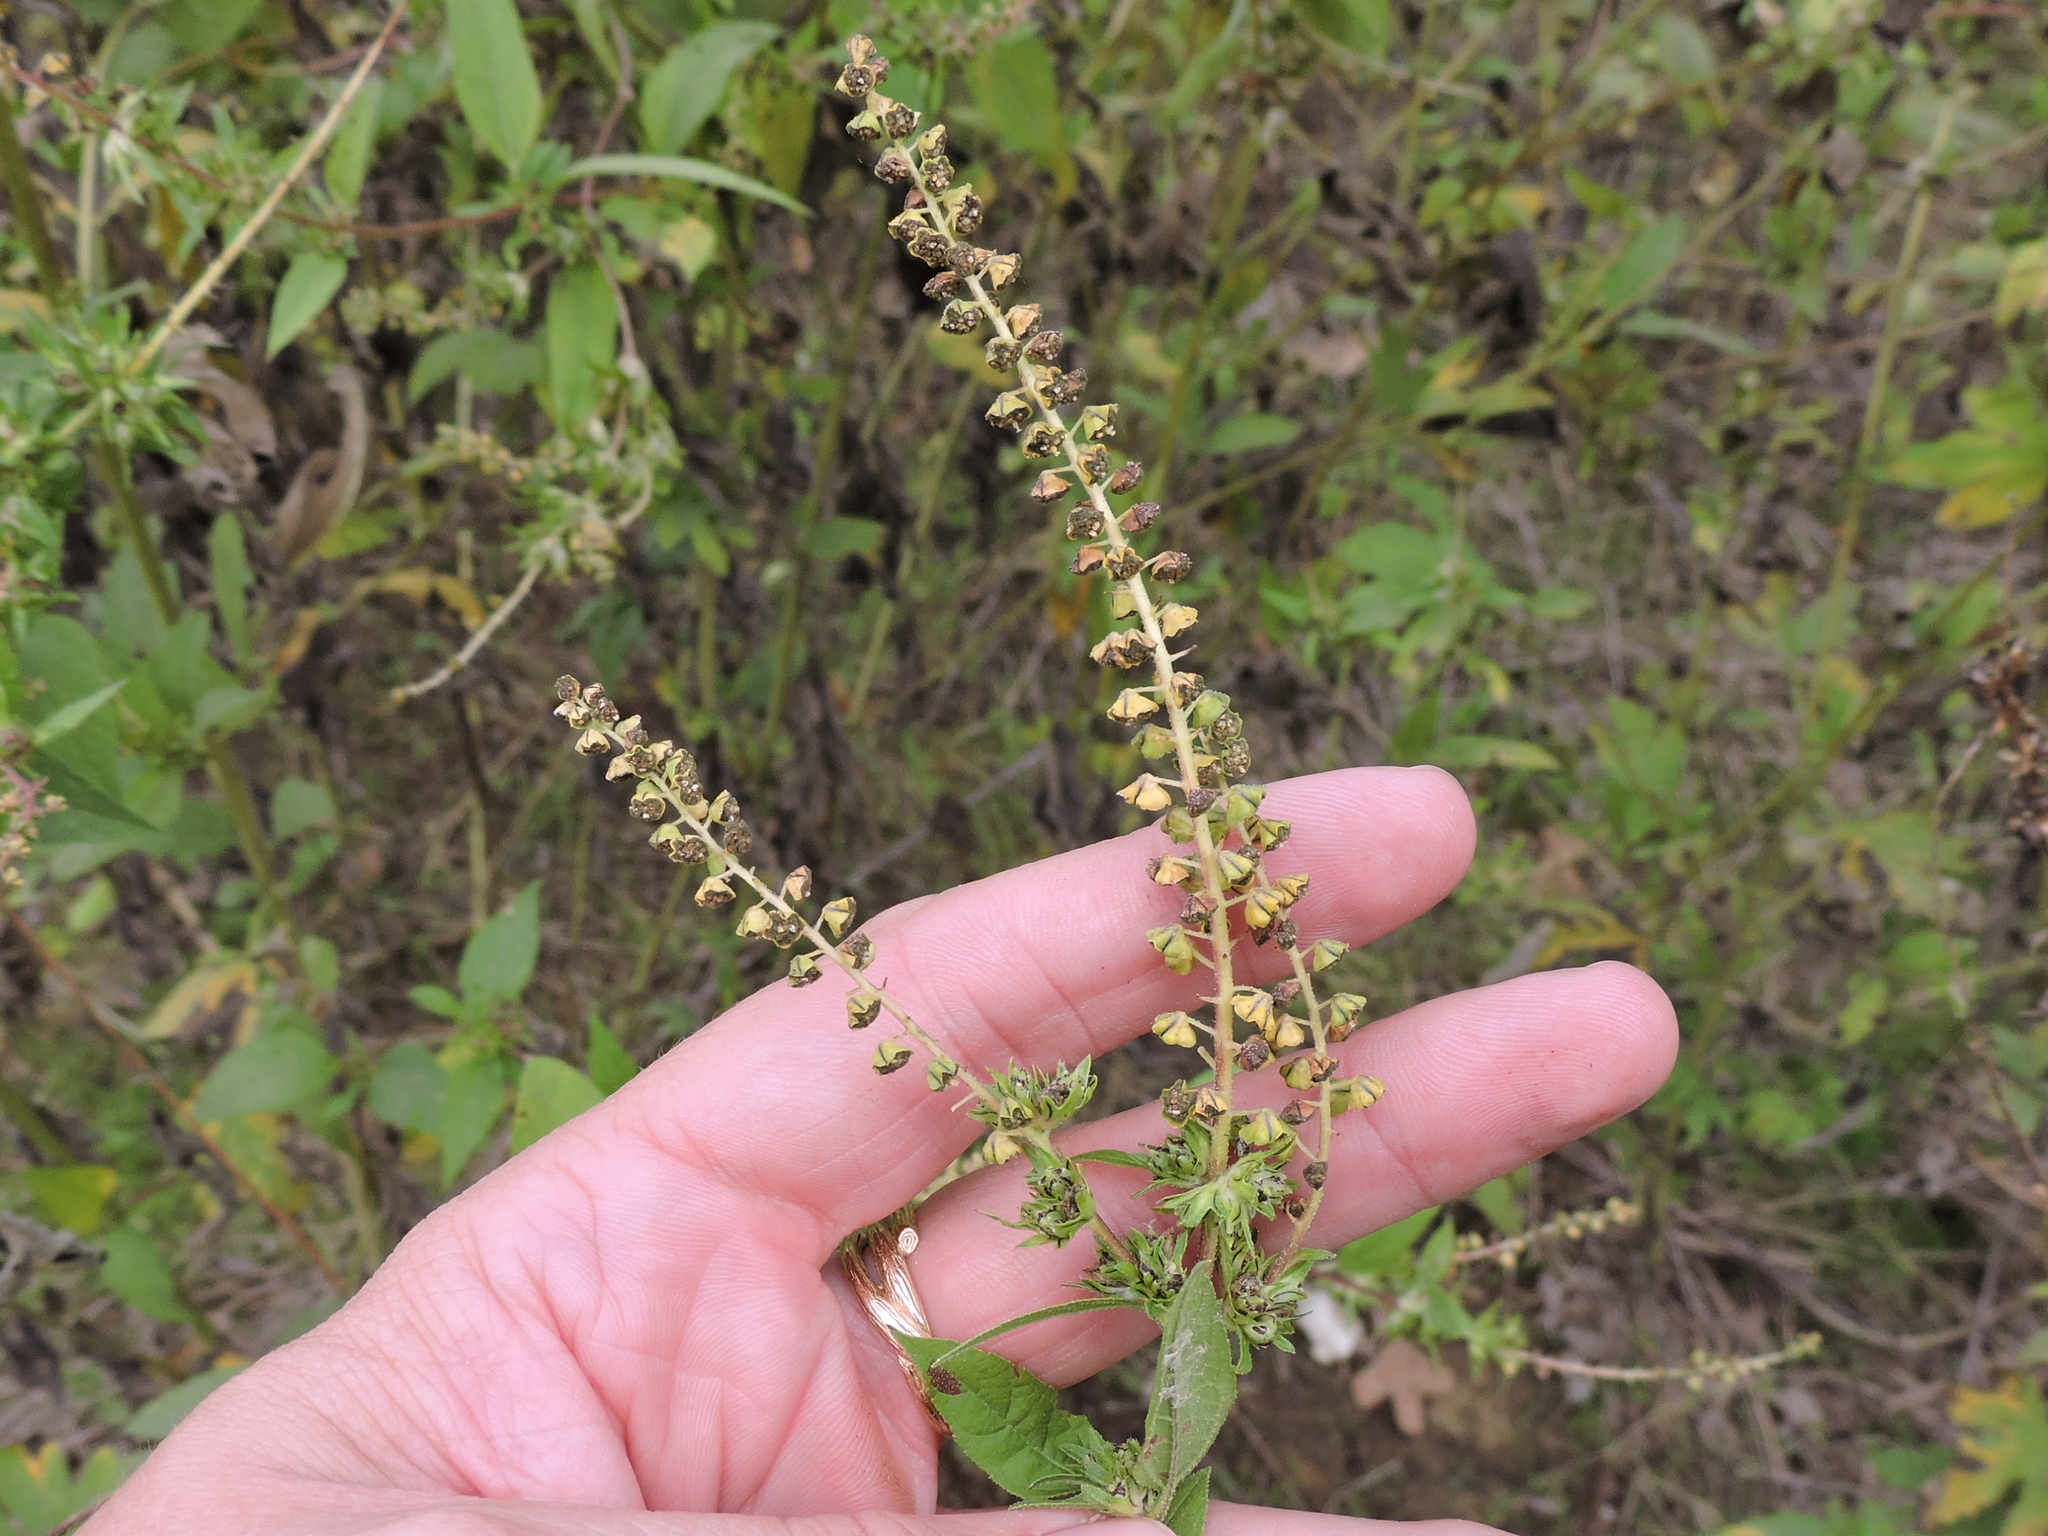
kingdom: Plantae
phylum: Tracheophyta
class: Magnoliopsida
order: Asterales
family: Asteraceae
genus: Ambrosia
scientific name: Ambrosia trifida
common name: Giant ragweed
